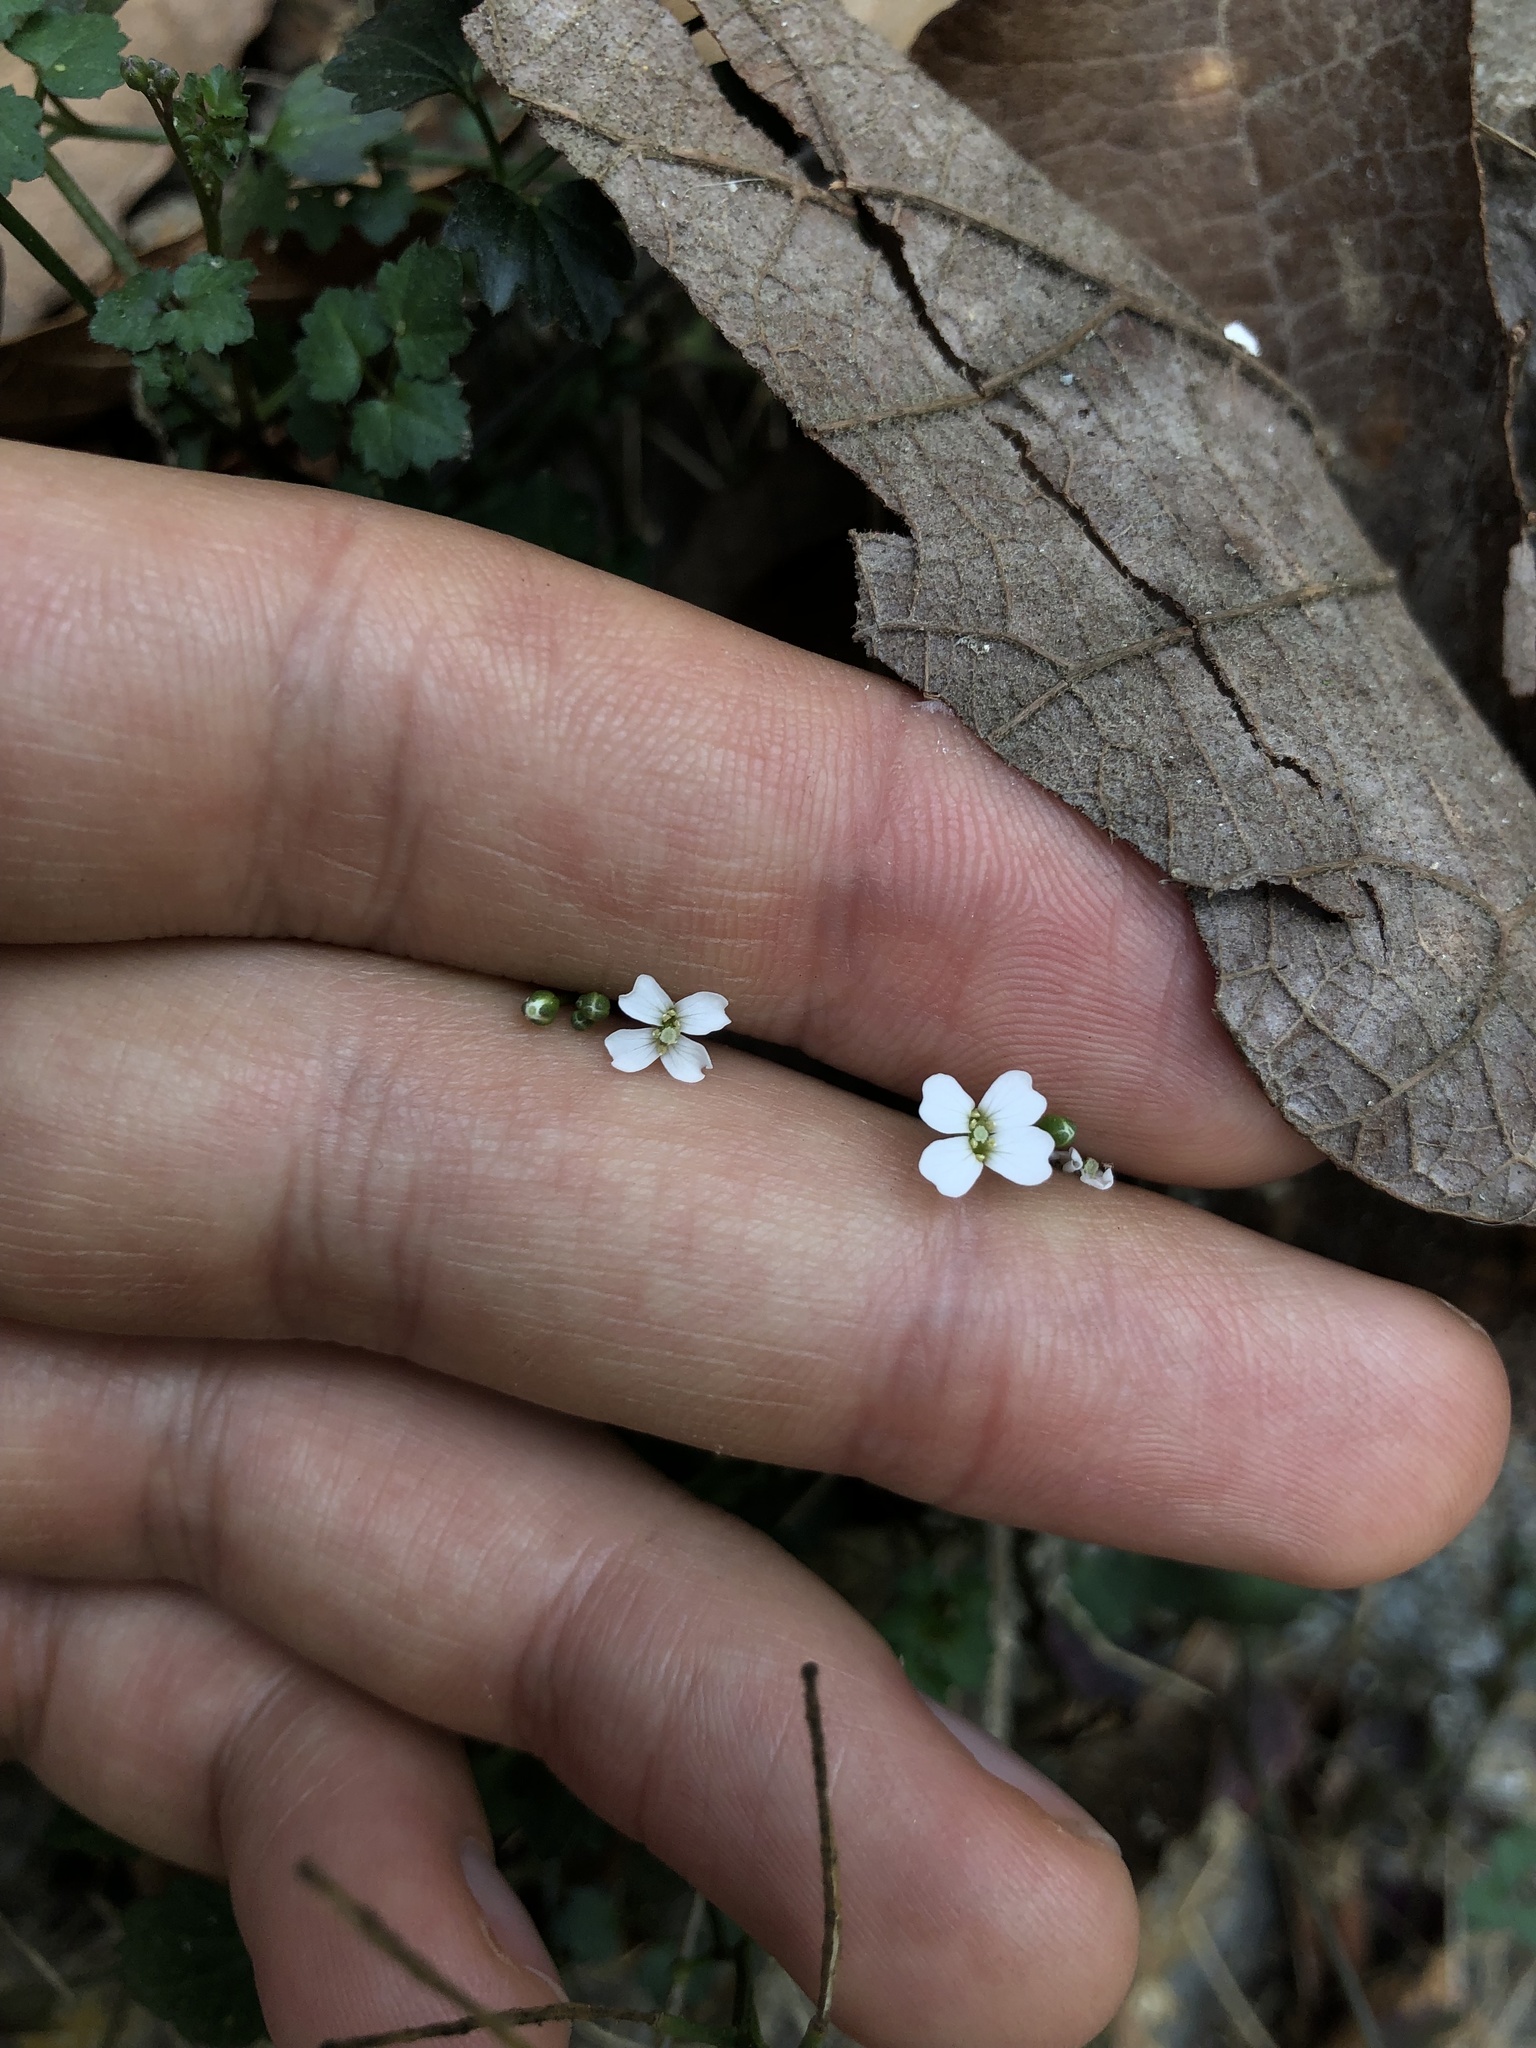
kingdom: Plantae
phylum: Tracheophyta
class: Magnoliopsida
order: Brassicales
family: Brassicaceae
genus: Cardamine
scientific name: Cardamine occulta
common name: Asian wavy bittercress
